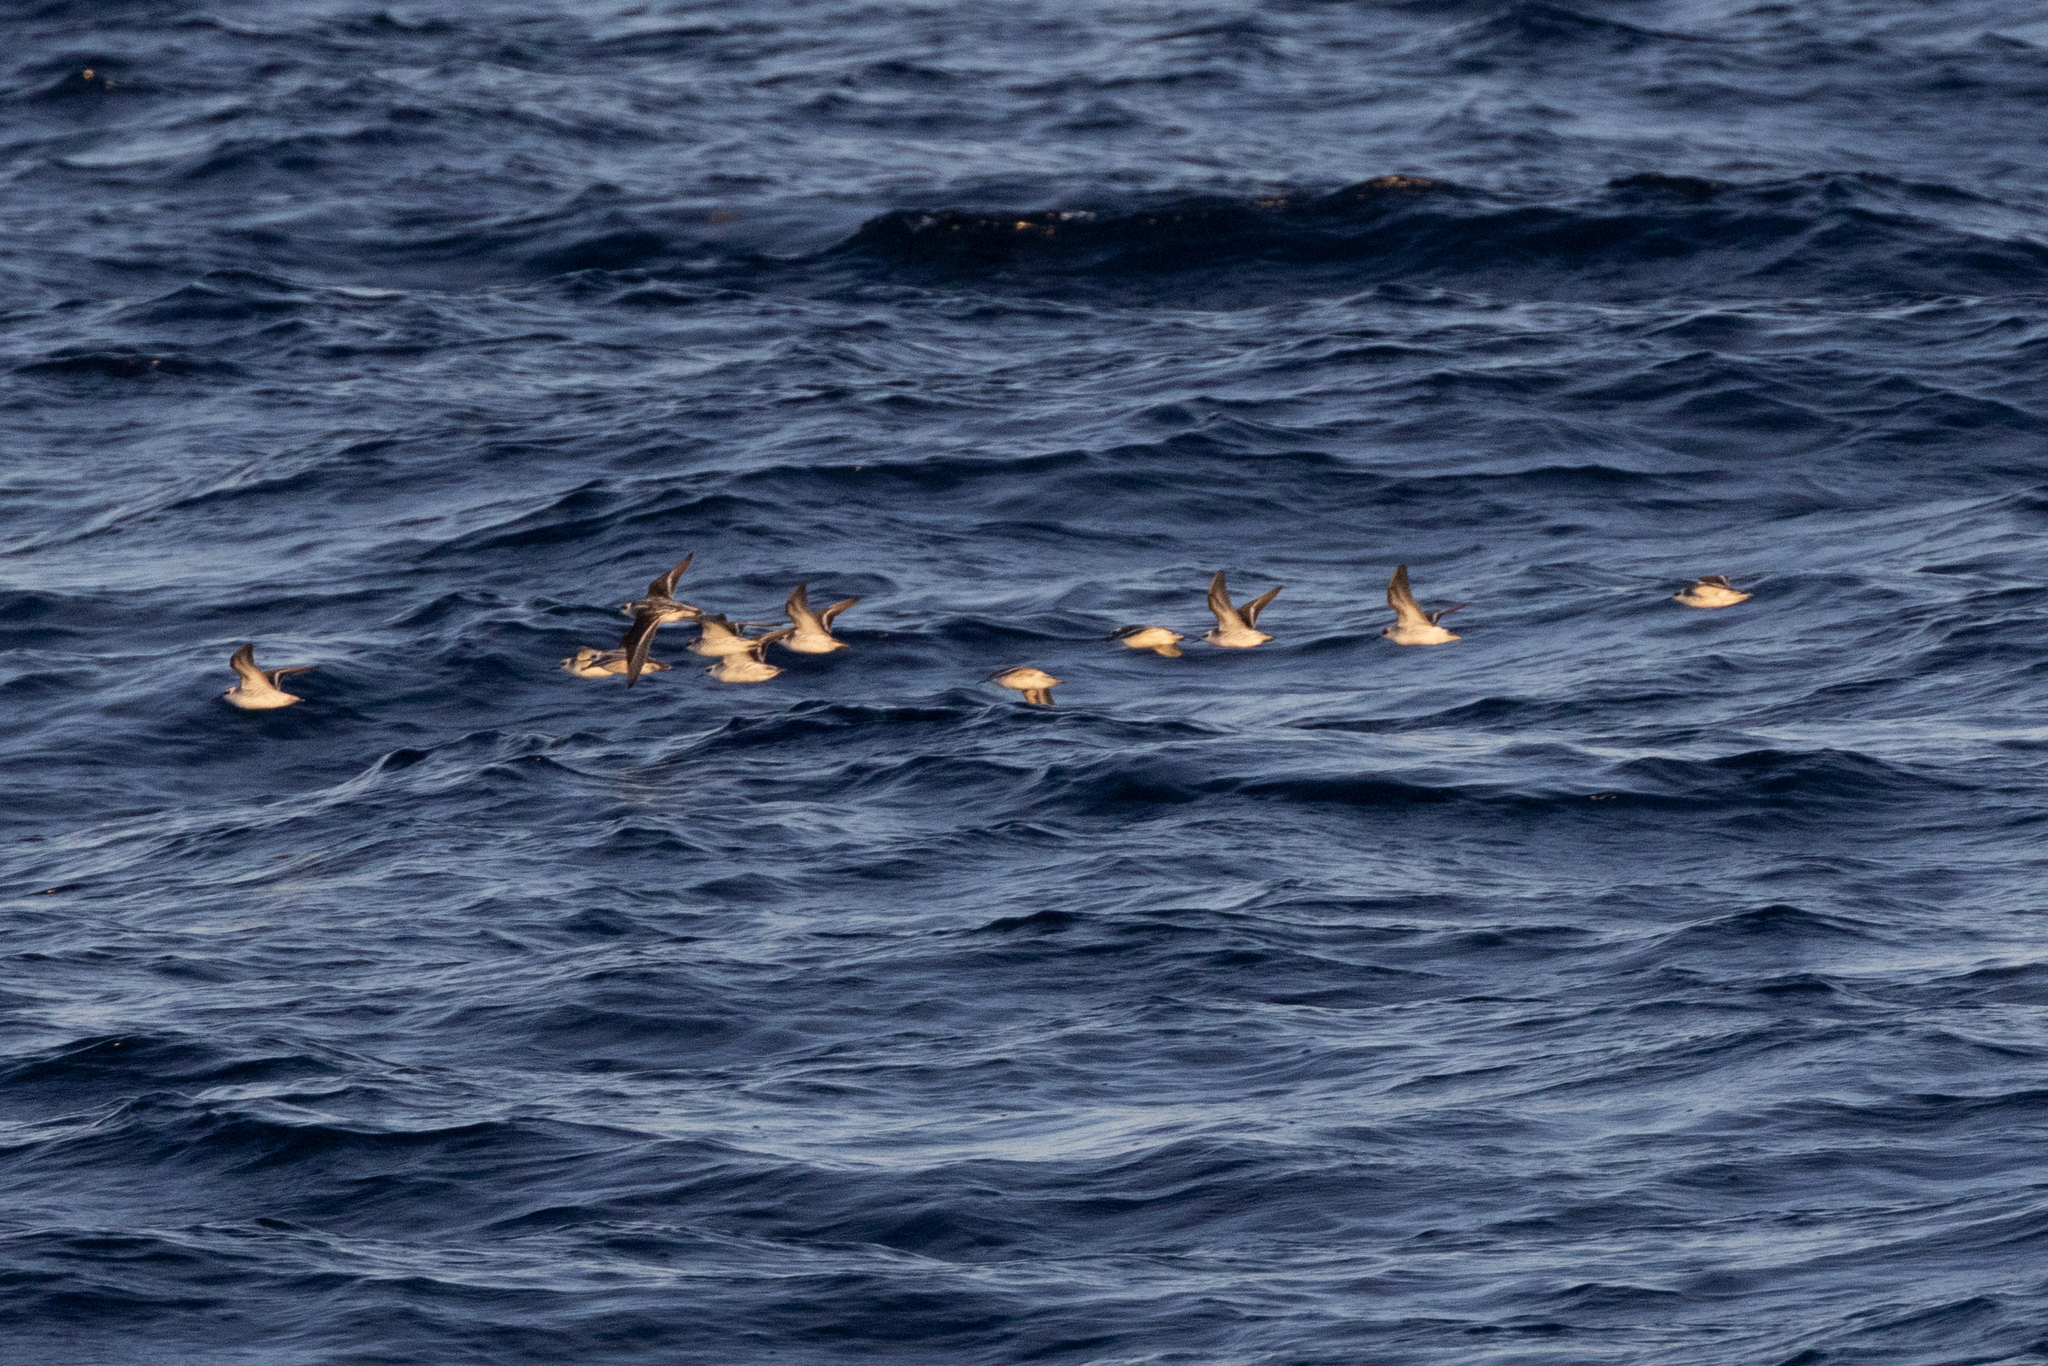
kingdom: Animalia
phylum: Chordata
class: Aves
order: Charadriiformes
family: Scolopacidae
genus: Phalaropus
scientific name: Phalaropus lobatus
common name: Red-necked phalarope
